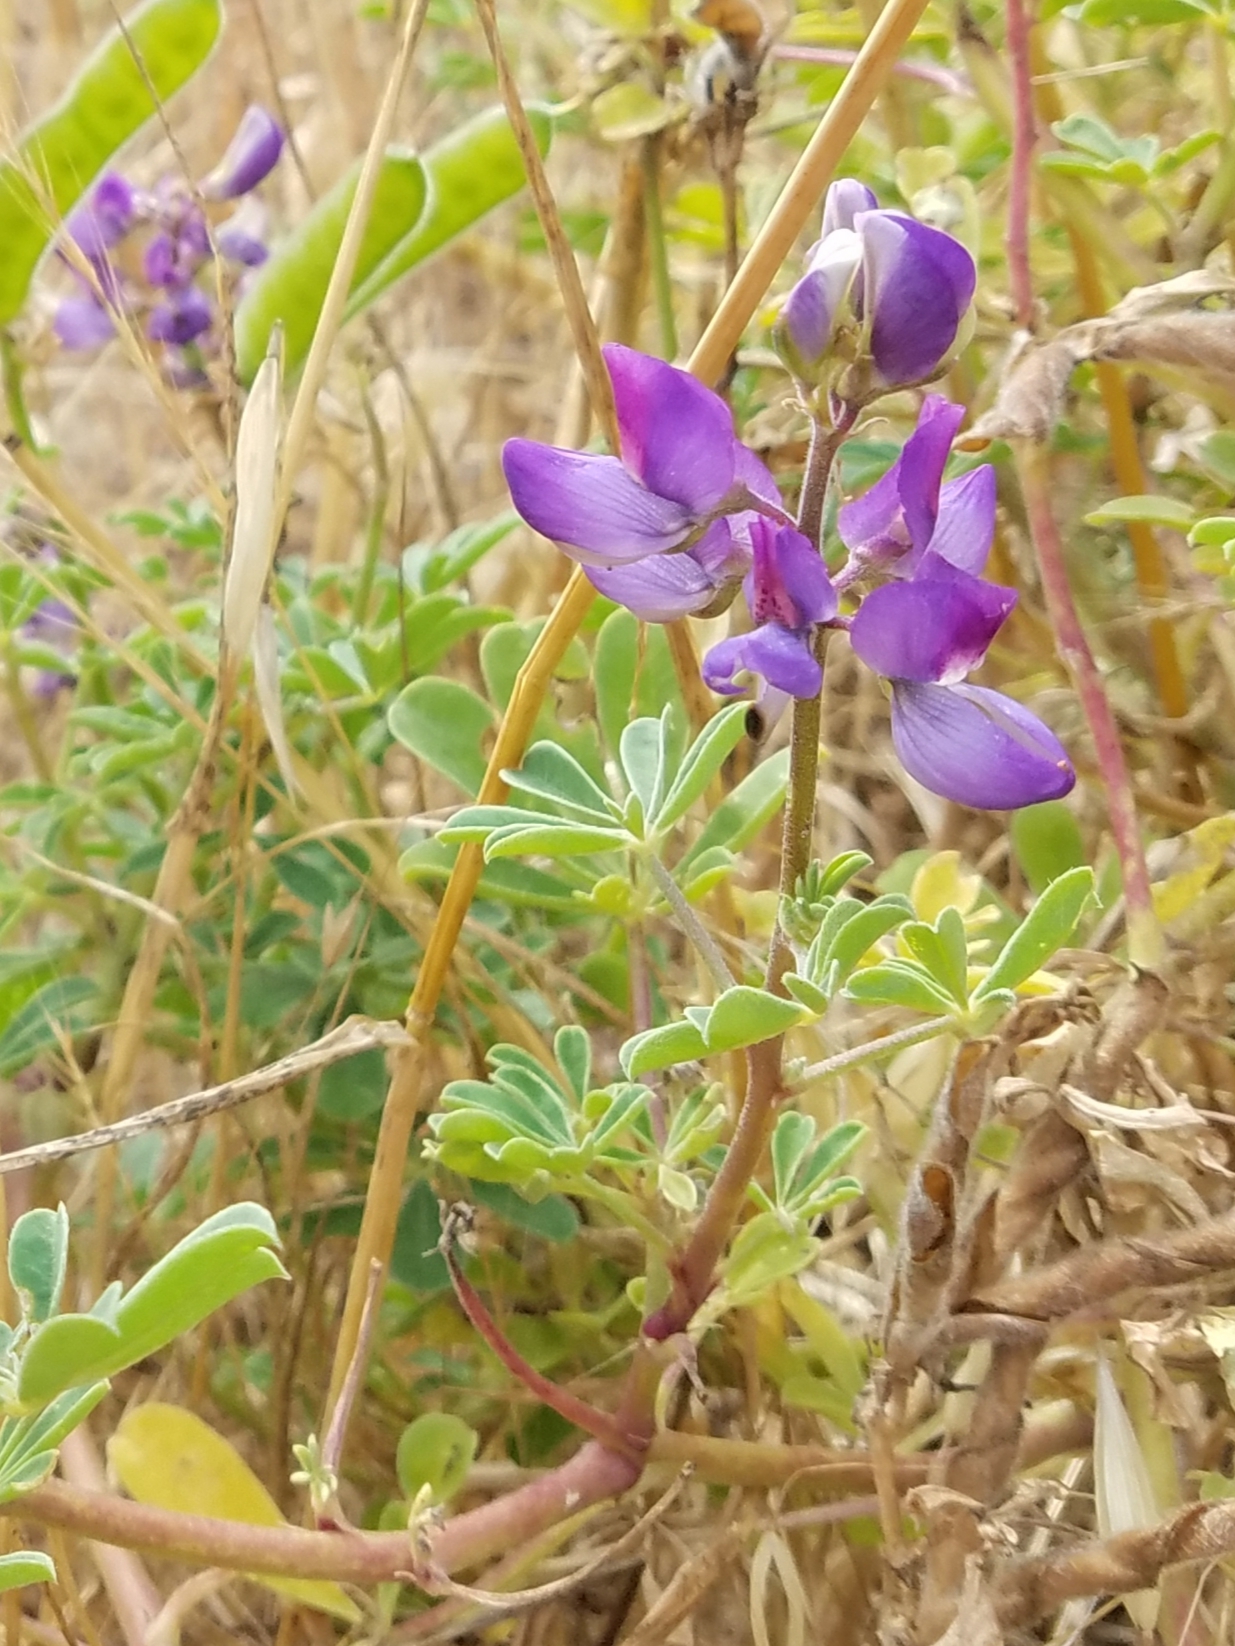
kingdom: Plantae
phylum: Tracheophyta
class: Magnoliopsida
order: Fabales
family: Fabaceae
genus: Lupinus
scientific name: Lupinus succulentus
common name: Arroyo lupine
